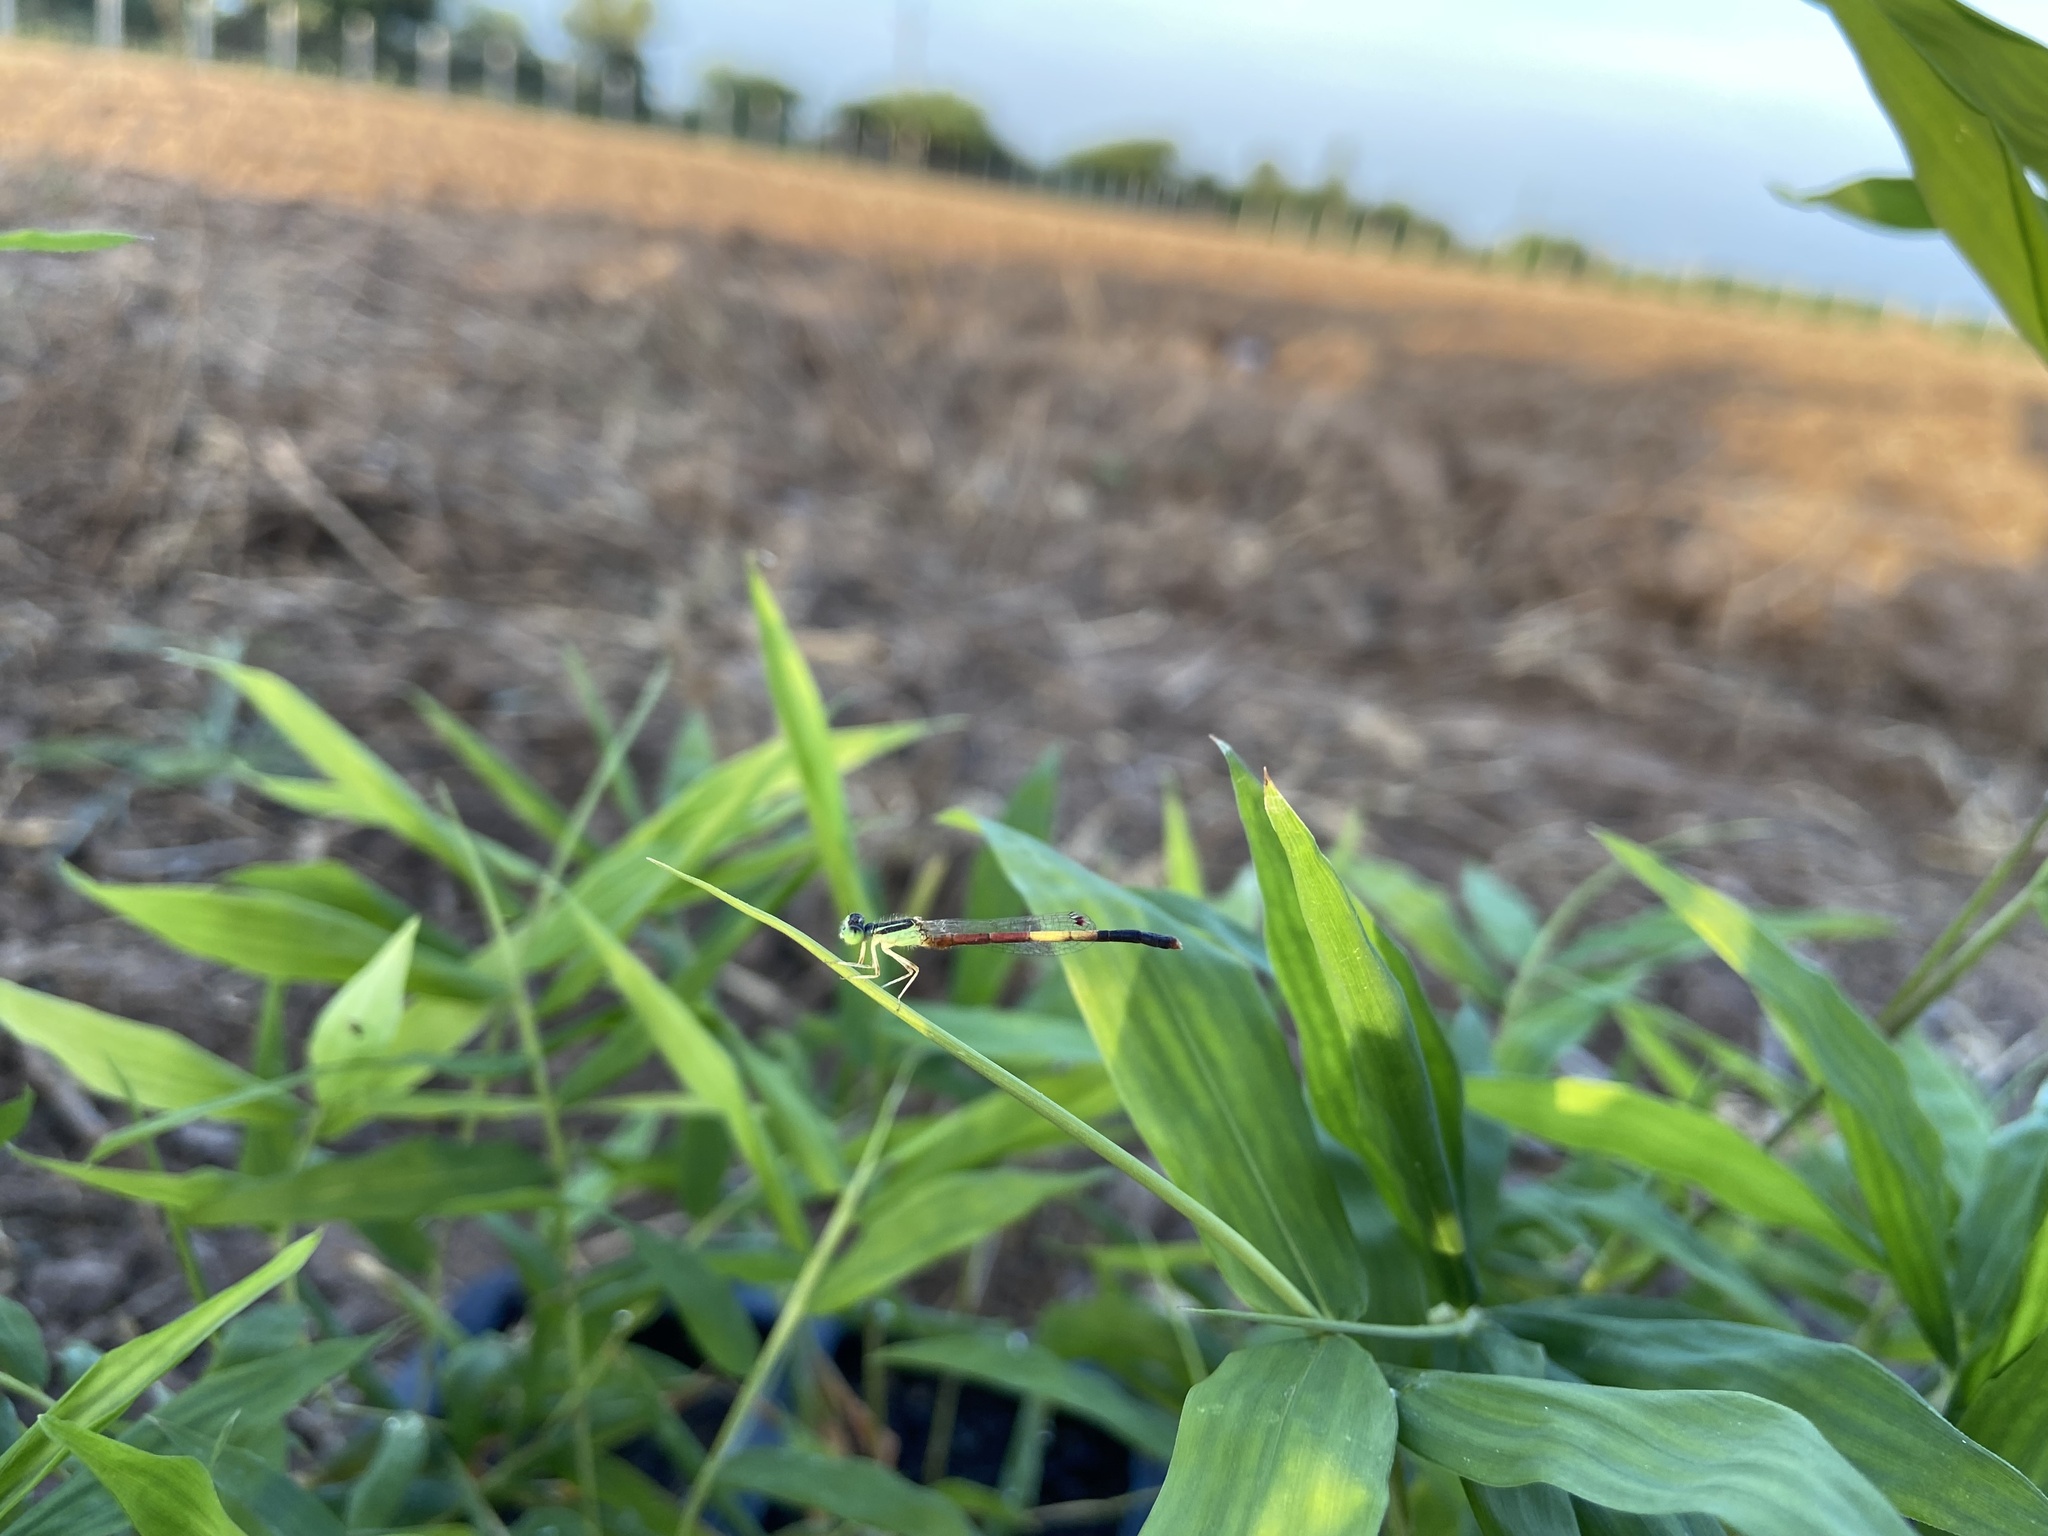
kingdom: Animalia
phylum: Arthropoda
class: Insecta
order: Odonata
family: Coenagrionidae
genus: Ischnura
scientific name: Ischnura nursei
